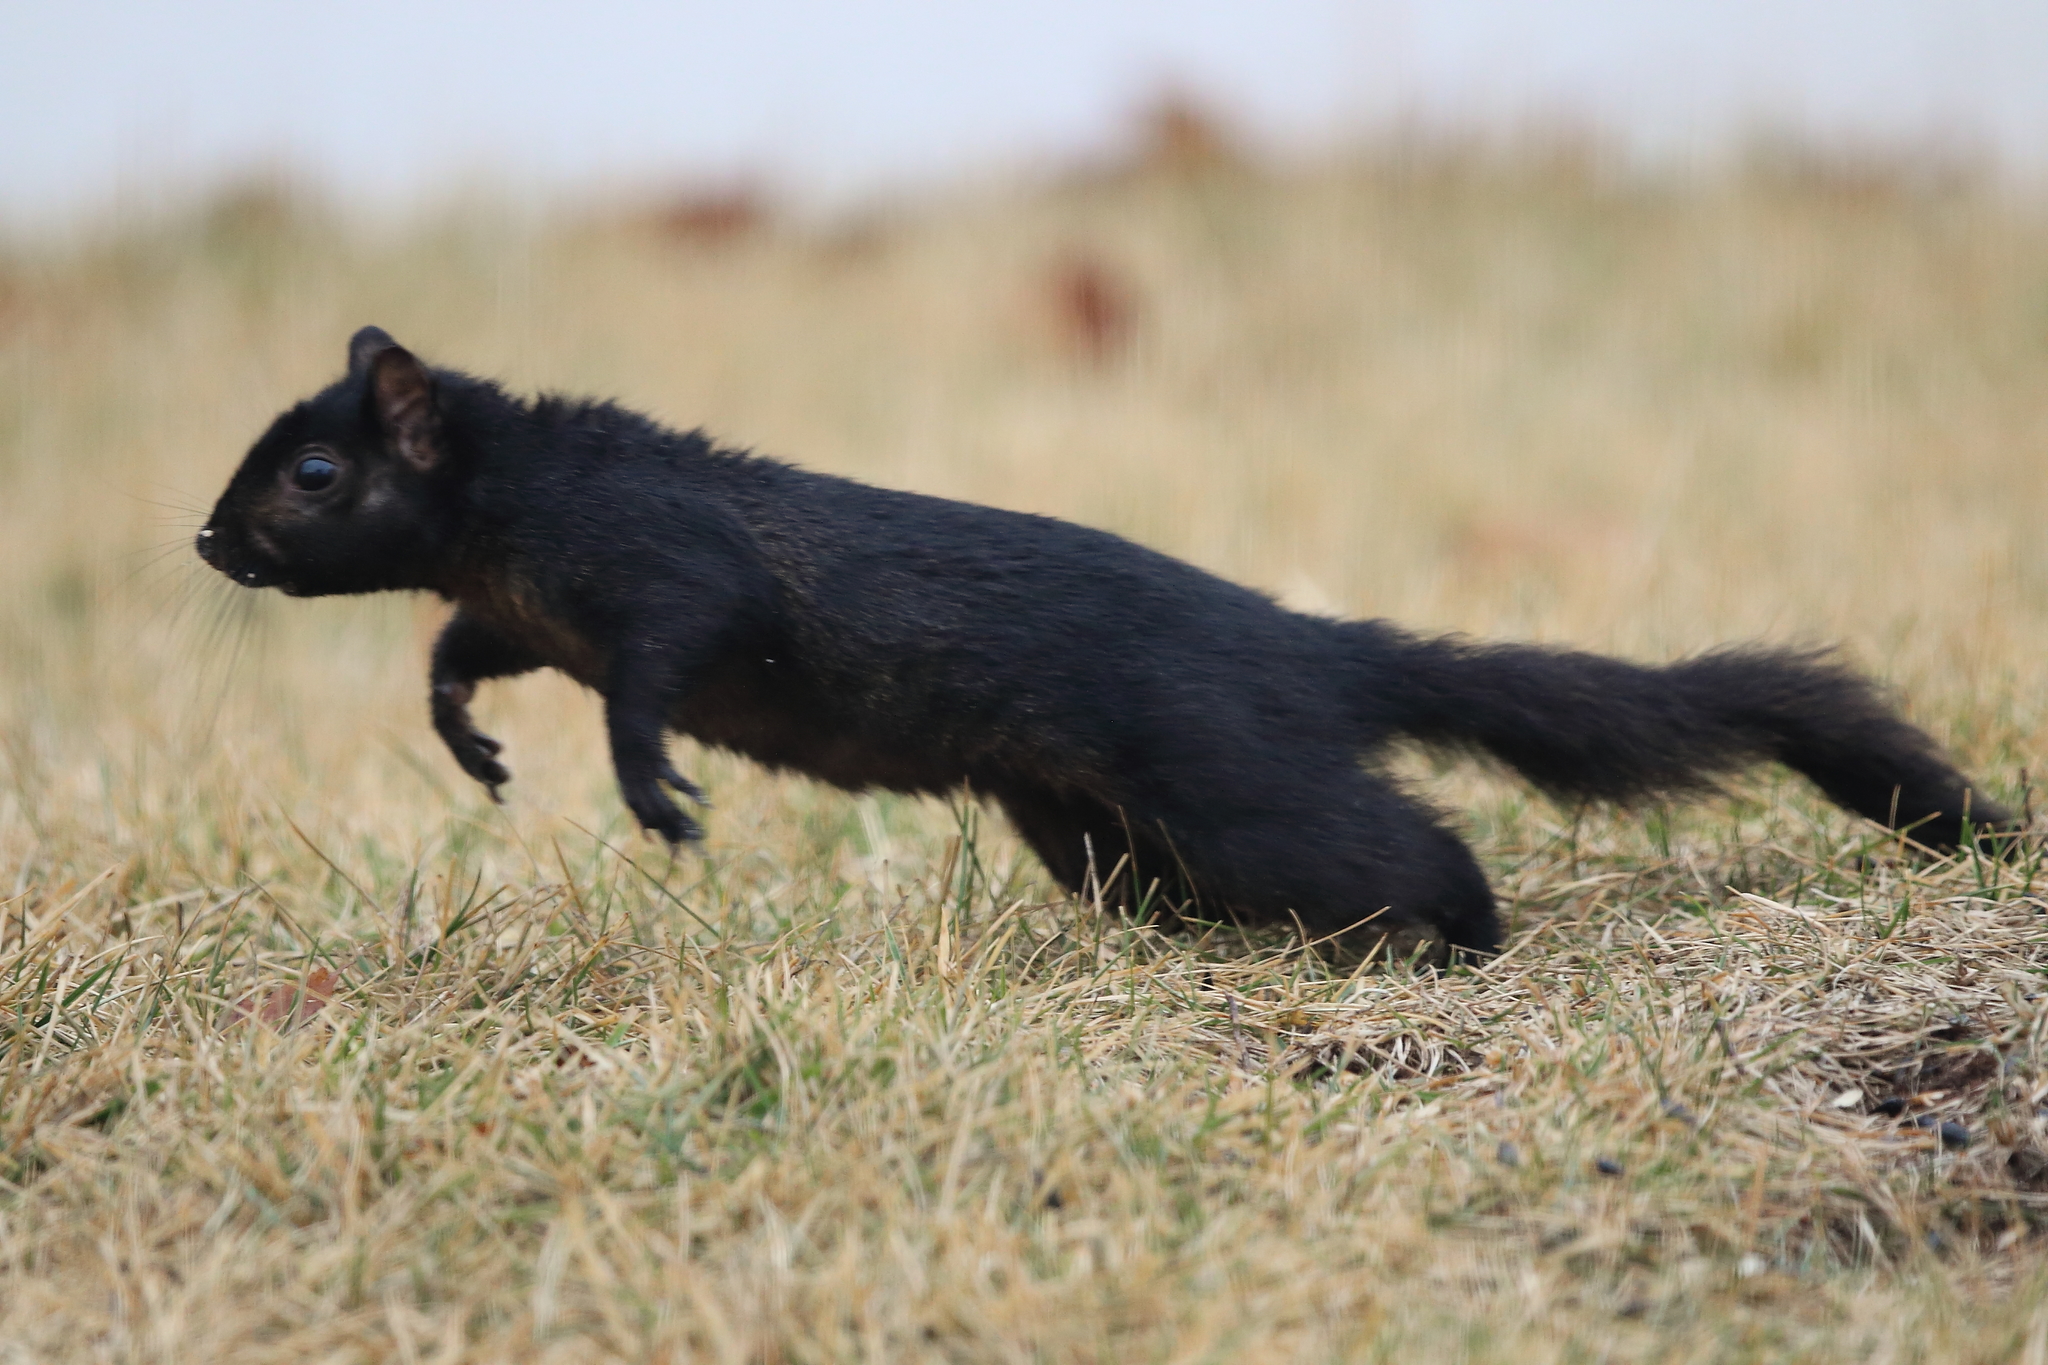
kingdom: Animalia
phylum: Chordata
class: Mammalia
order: Rodentia
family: Sciuridae
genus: Sciurus
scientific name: Sciurus carolinensis
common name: Eastern gray squirrel
